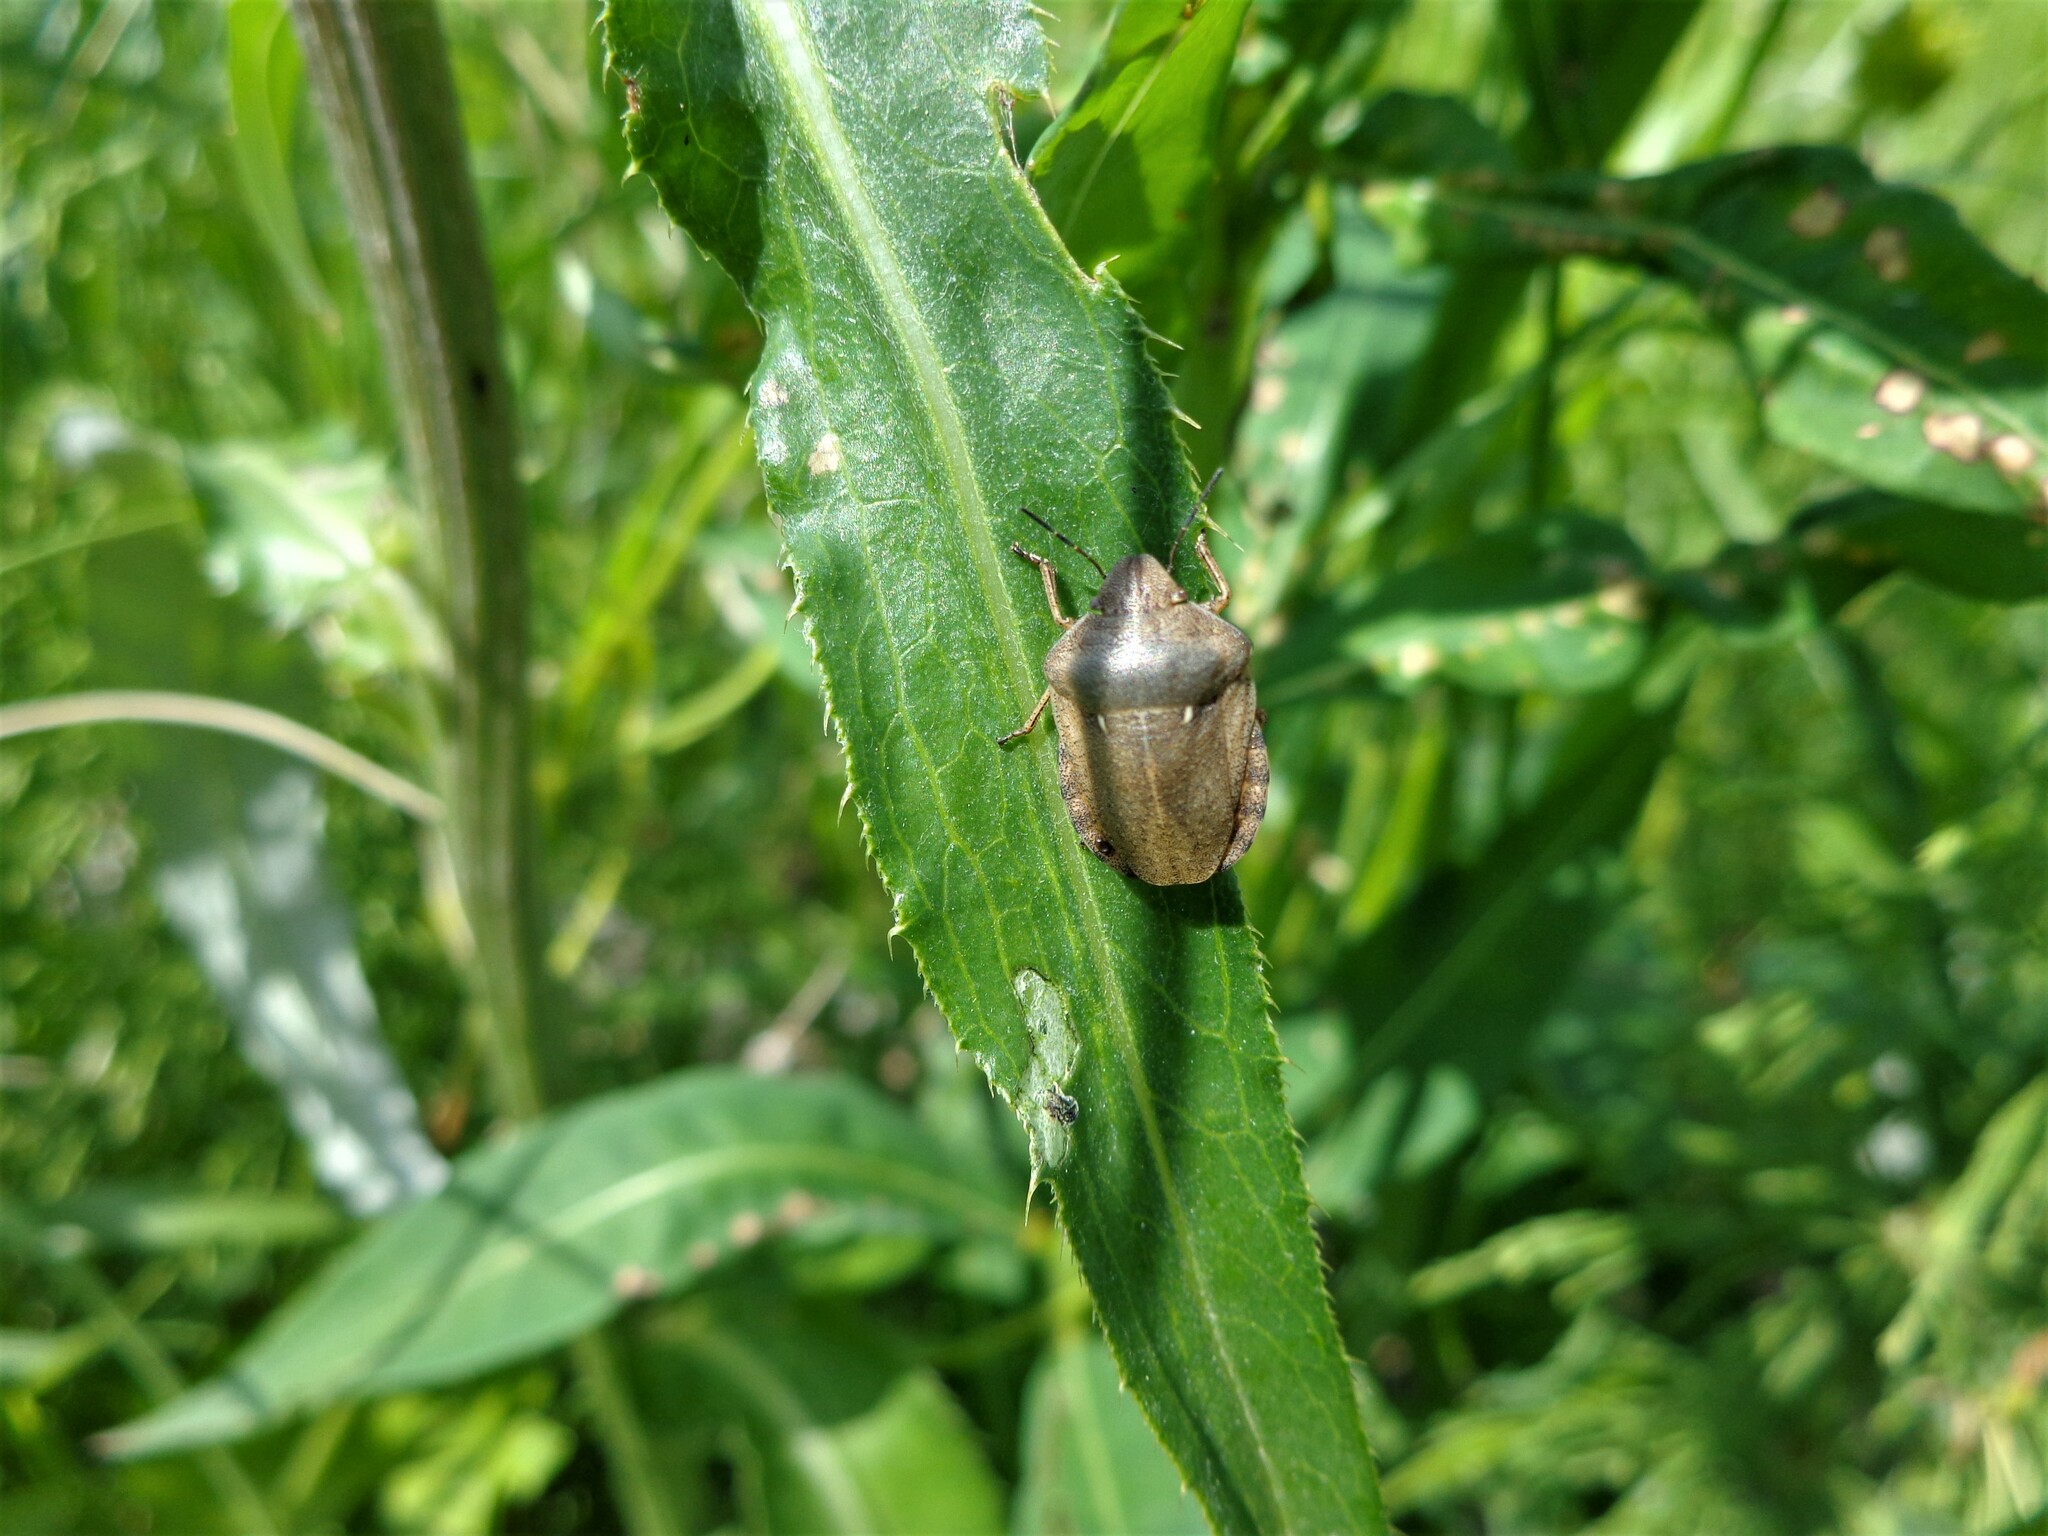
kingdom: Animalia
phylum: Arthropoda
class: Insecta
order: Hemiptera
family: Scutelleridae
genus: Eurygaster
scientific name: Eurygaster maura
